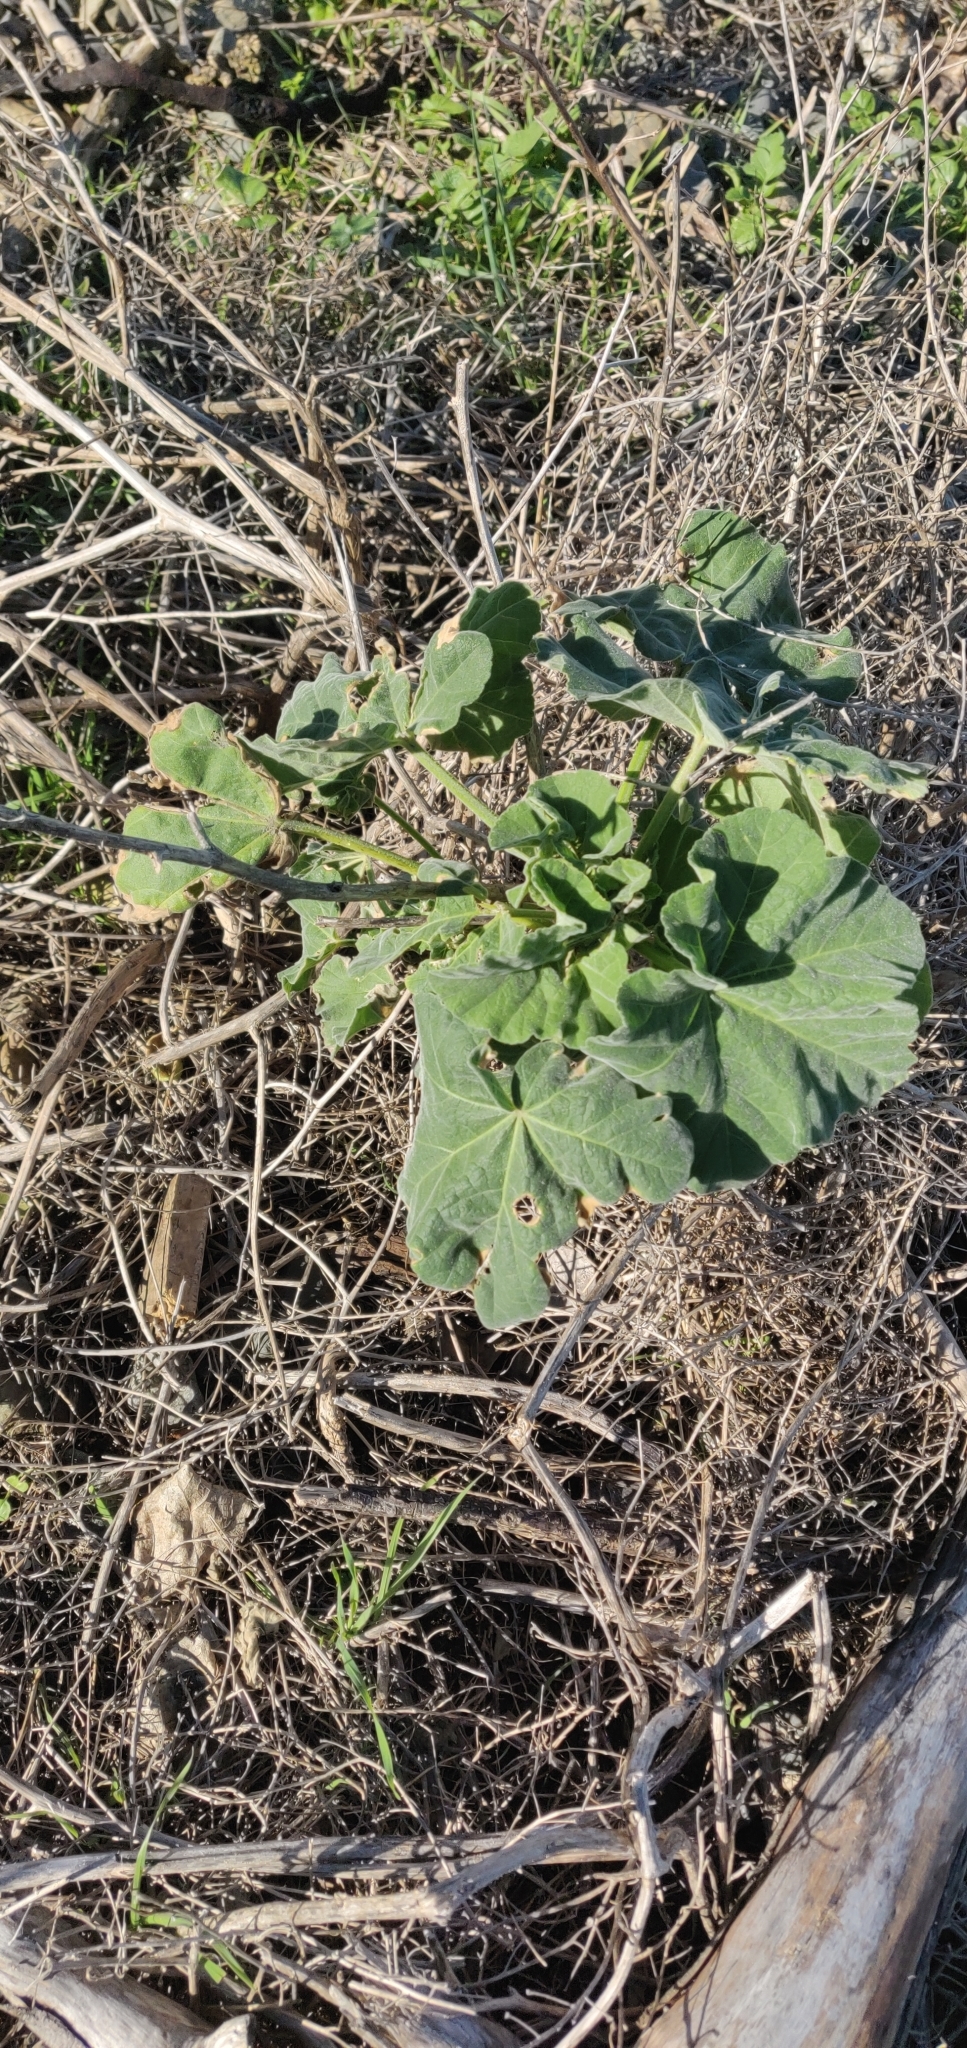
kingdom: Plantae
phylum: Tracheophyta
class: Magnoliopsida
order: Malvales
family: Malvaceae
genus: Malva
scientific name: Malva arborea
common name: Tree mallow
